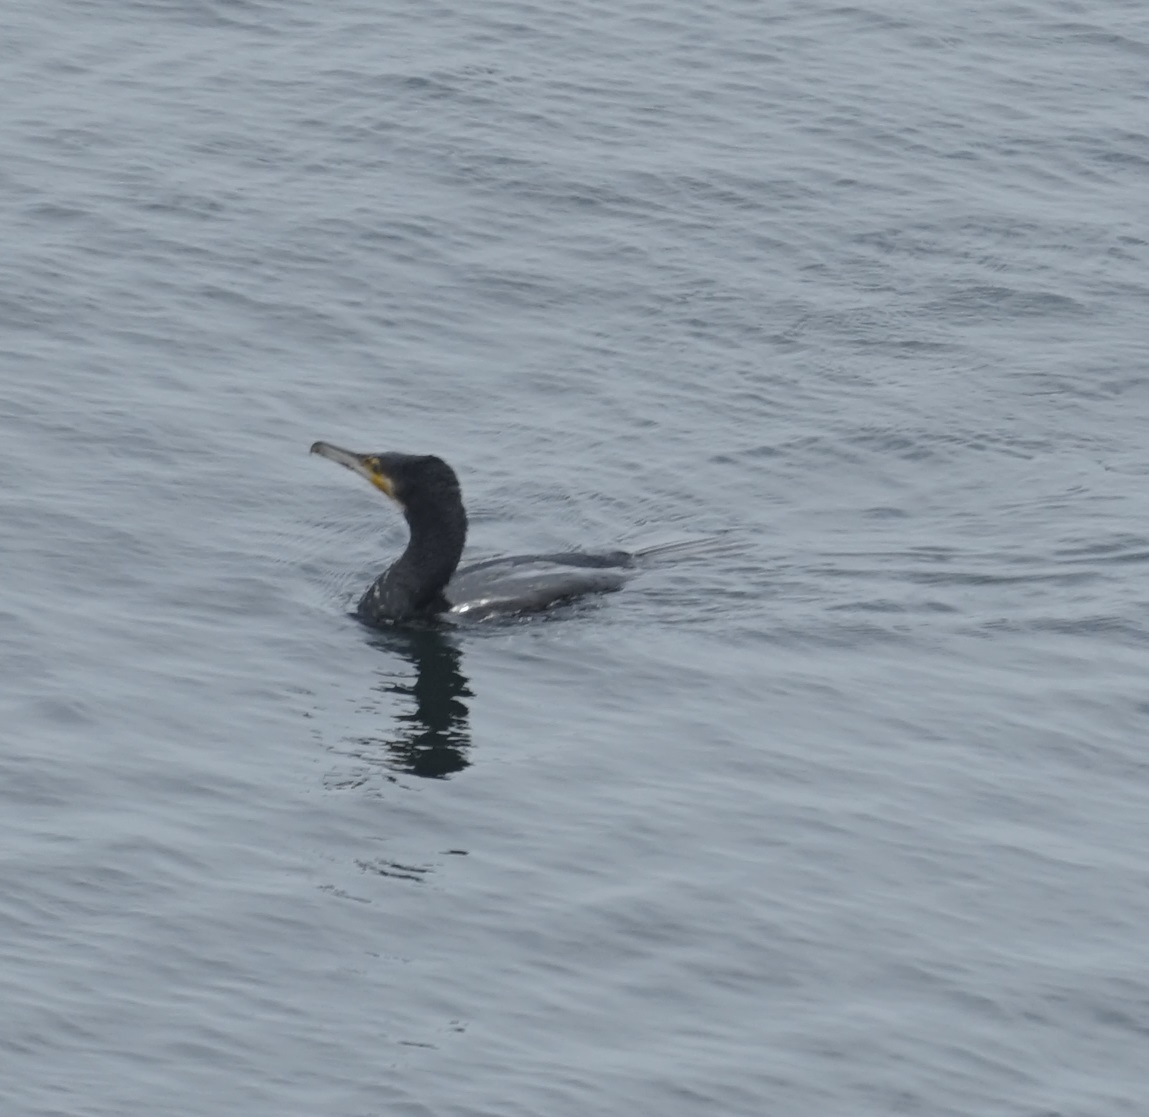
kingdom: Animalia
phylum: Chordata
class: Aves
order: Suliformes
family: Phalacrocoracidae
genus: Phalacrocorax
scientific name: Phalacrocorax carbo
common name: Great cormorant
